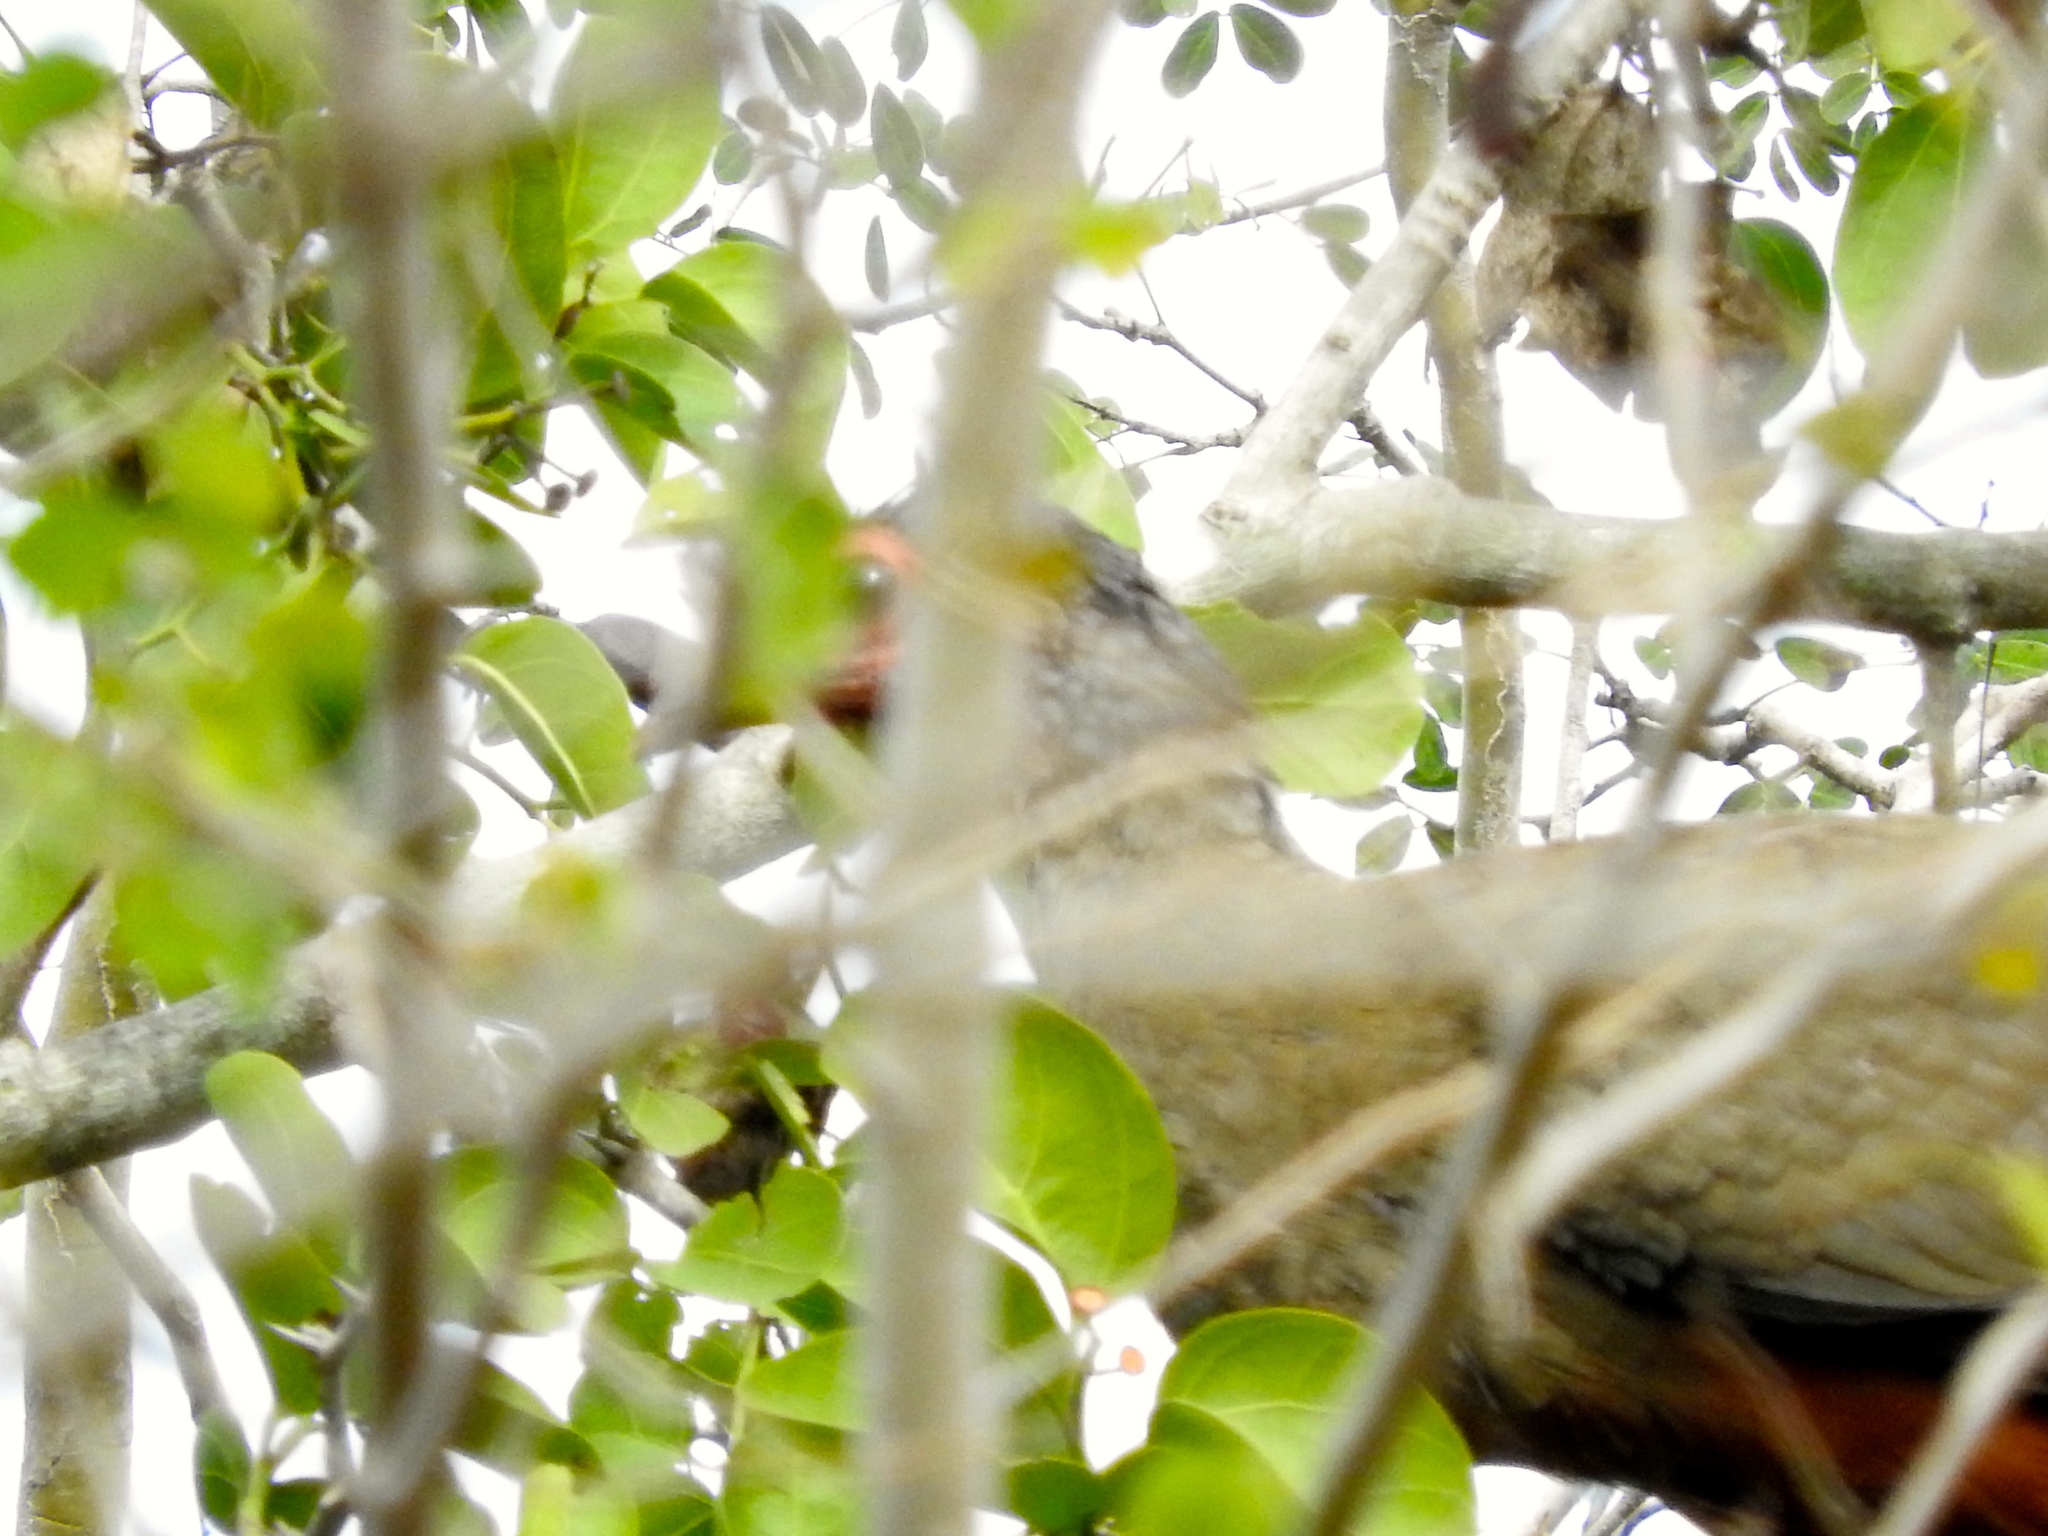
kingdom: Animalia
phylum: Chordata
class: Aves
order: Galliformes
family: Cracidae
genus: Ortalis
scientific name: Ortalis wagleri
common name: Rufous-bellied chachalaca
